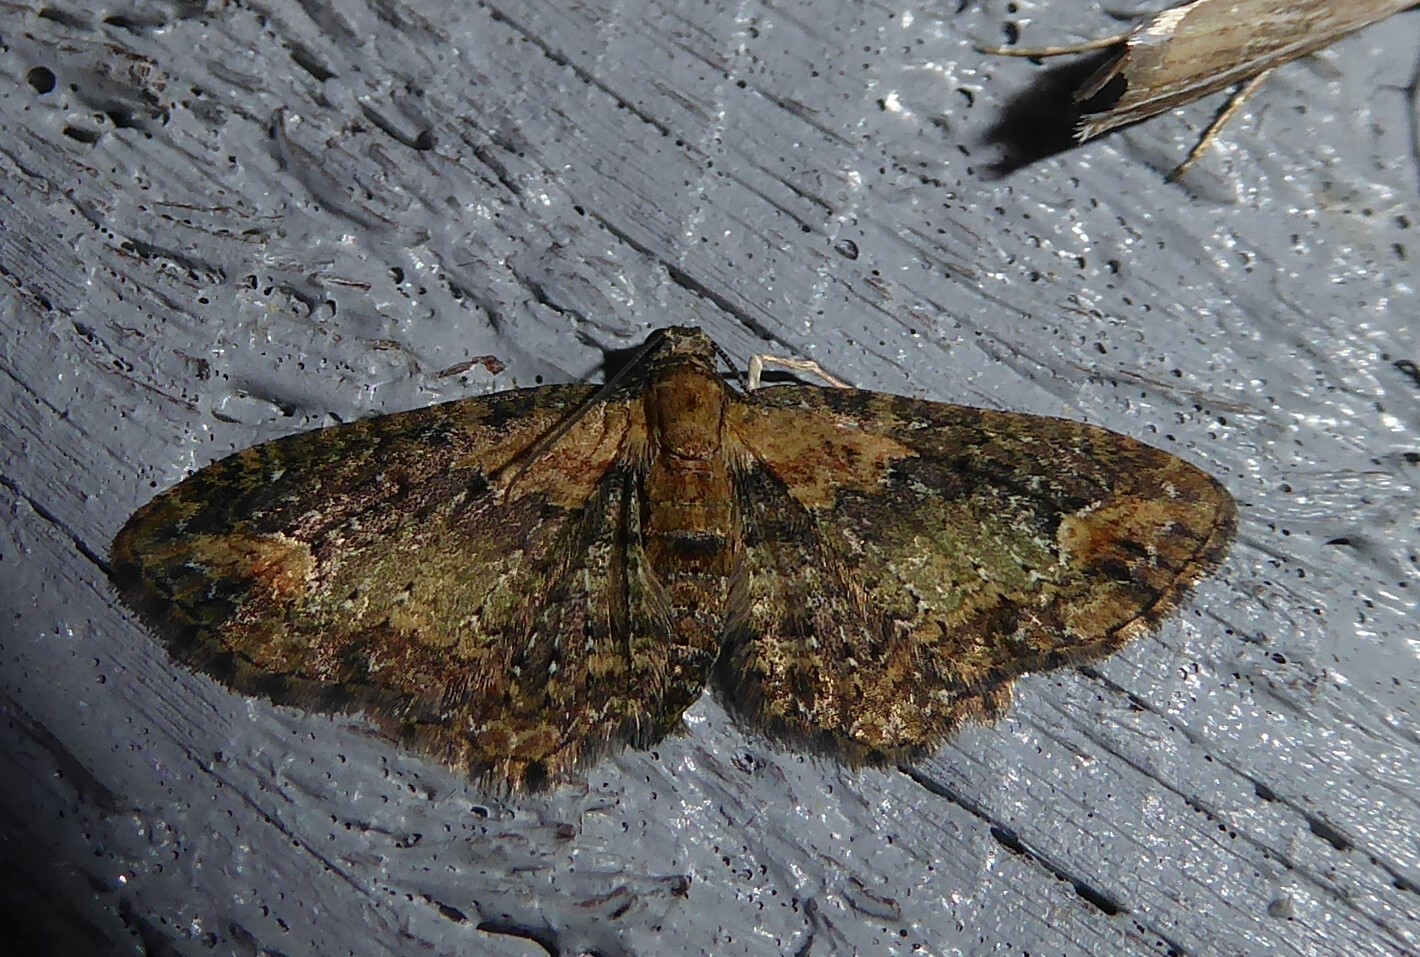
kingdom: Animalia
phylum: Arthropoda
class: Insecta
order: Lepidoptera
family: Geometridae
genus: Pasiphilodes
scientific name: Pasiphilodes testulata
